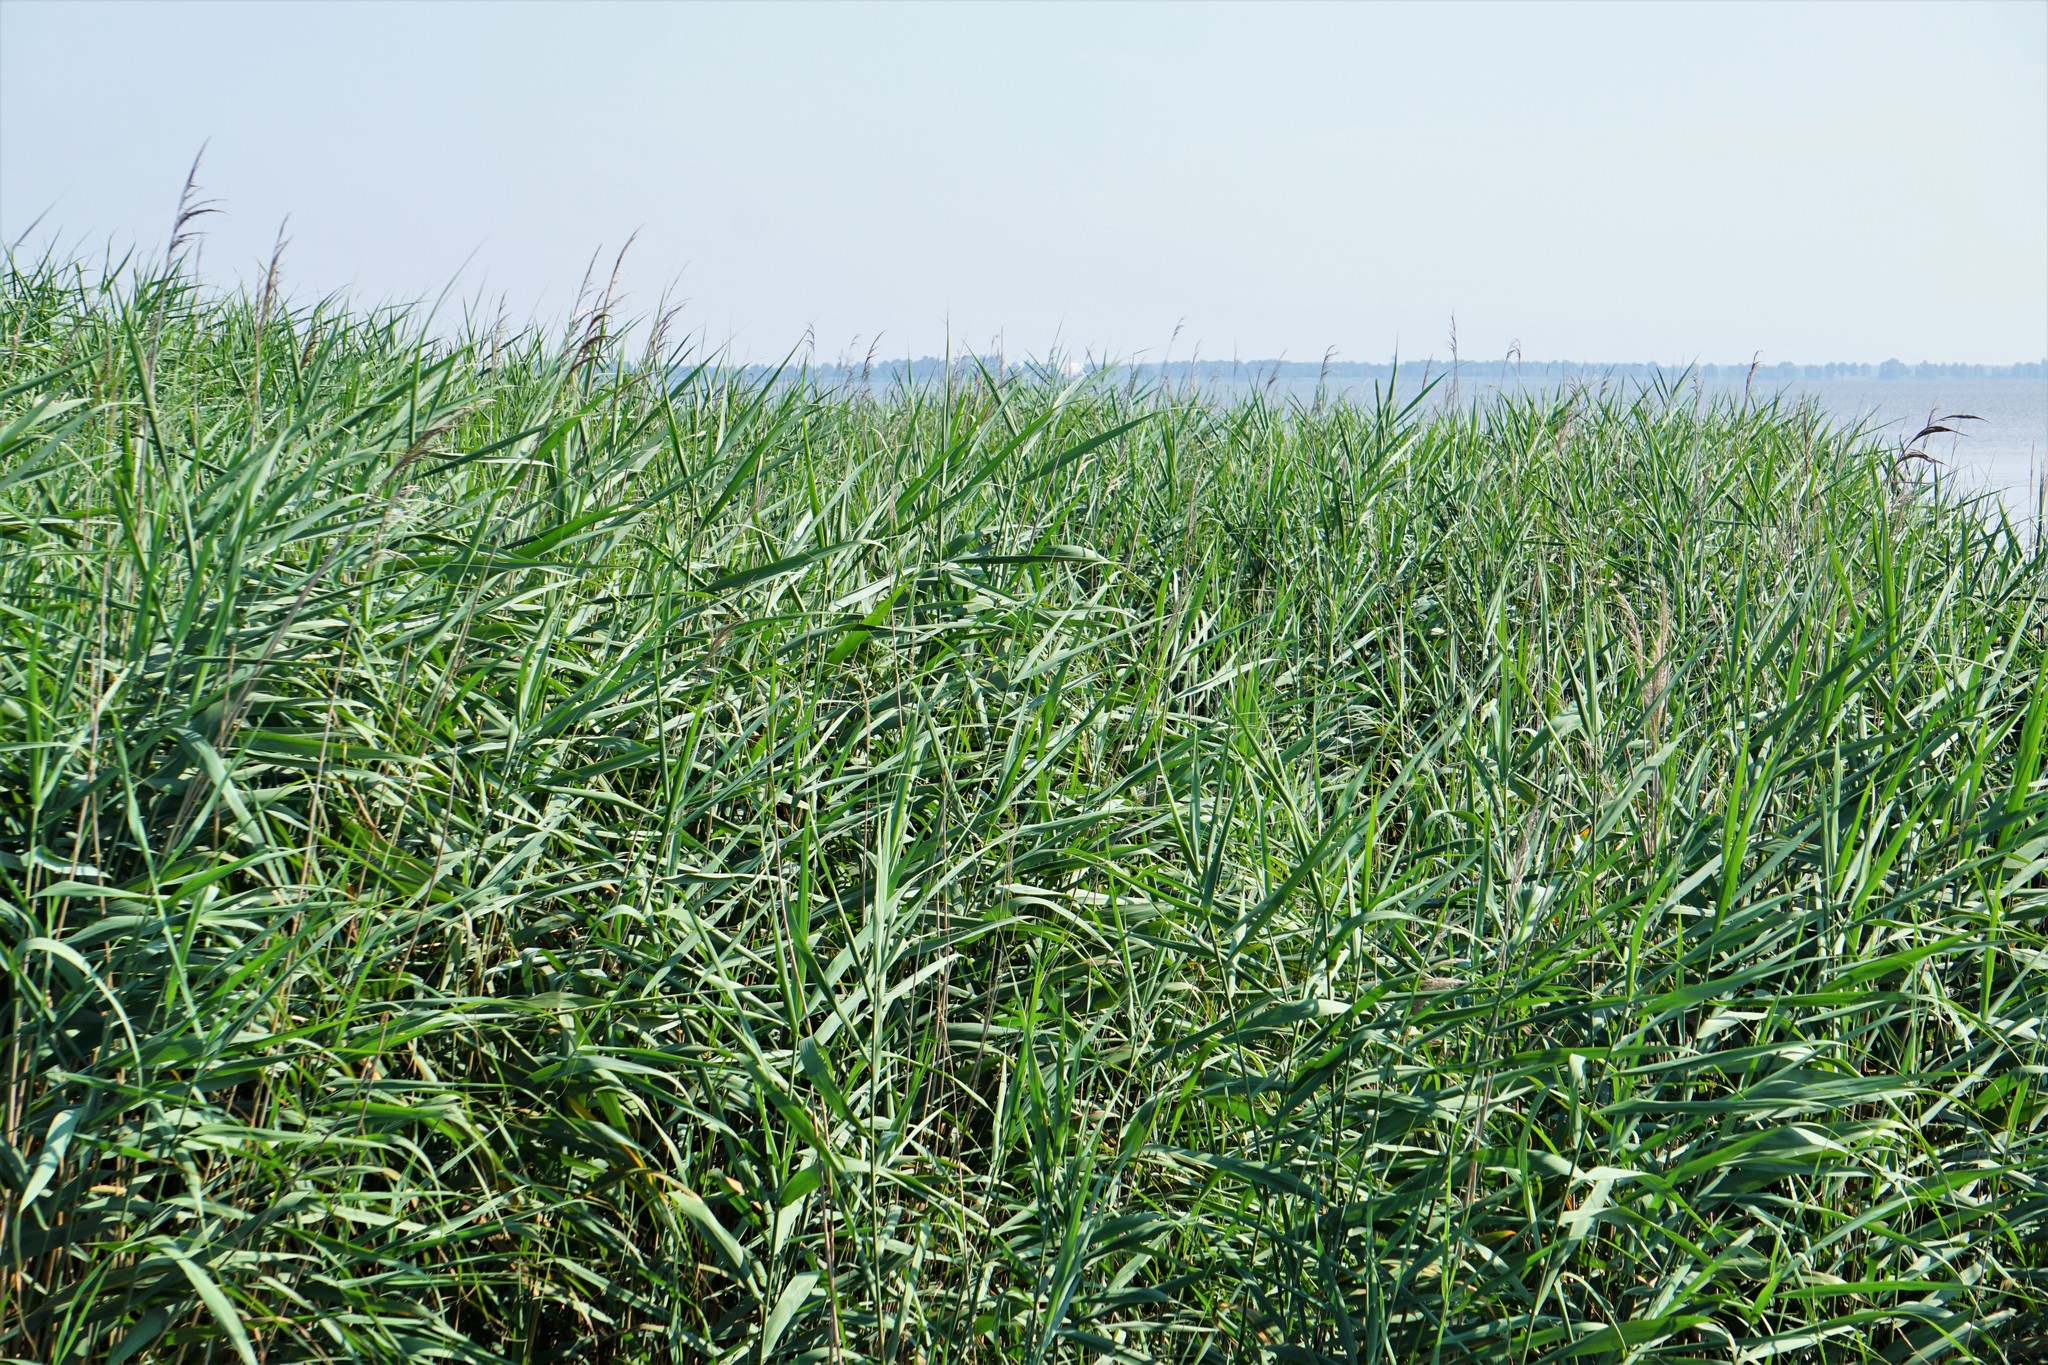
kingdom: Plantae
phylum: Tracheophyta
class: Liliopsida
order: Poales
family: Poaceae
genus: Phragmites
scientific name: Phragmites australis
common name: Common reed
